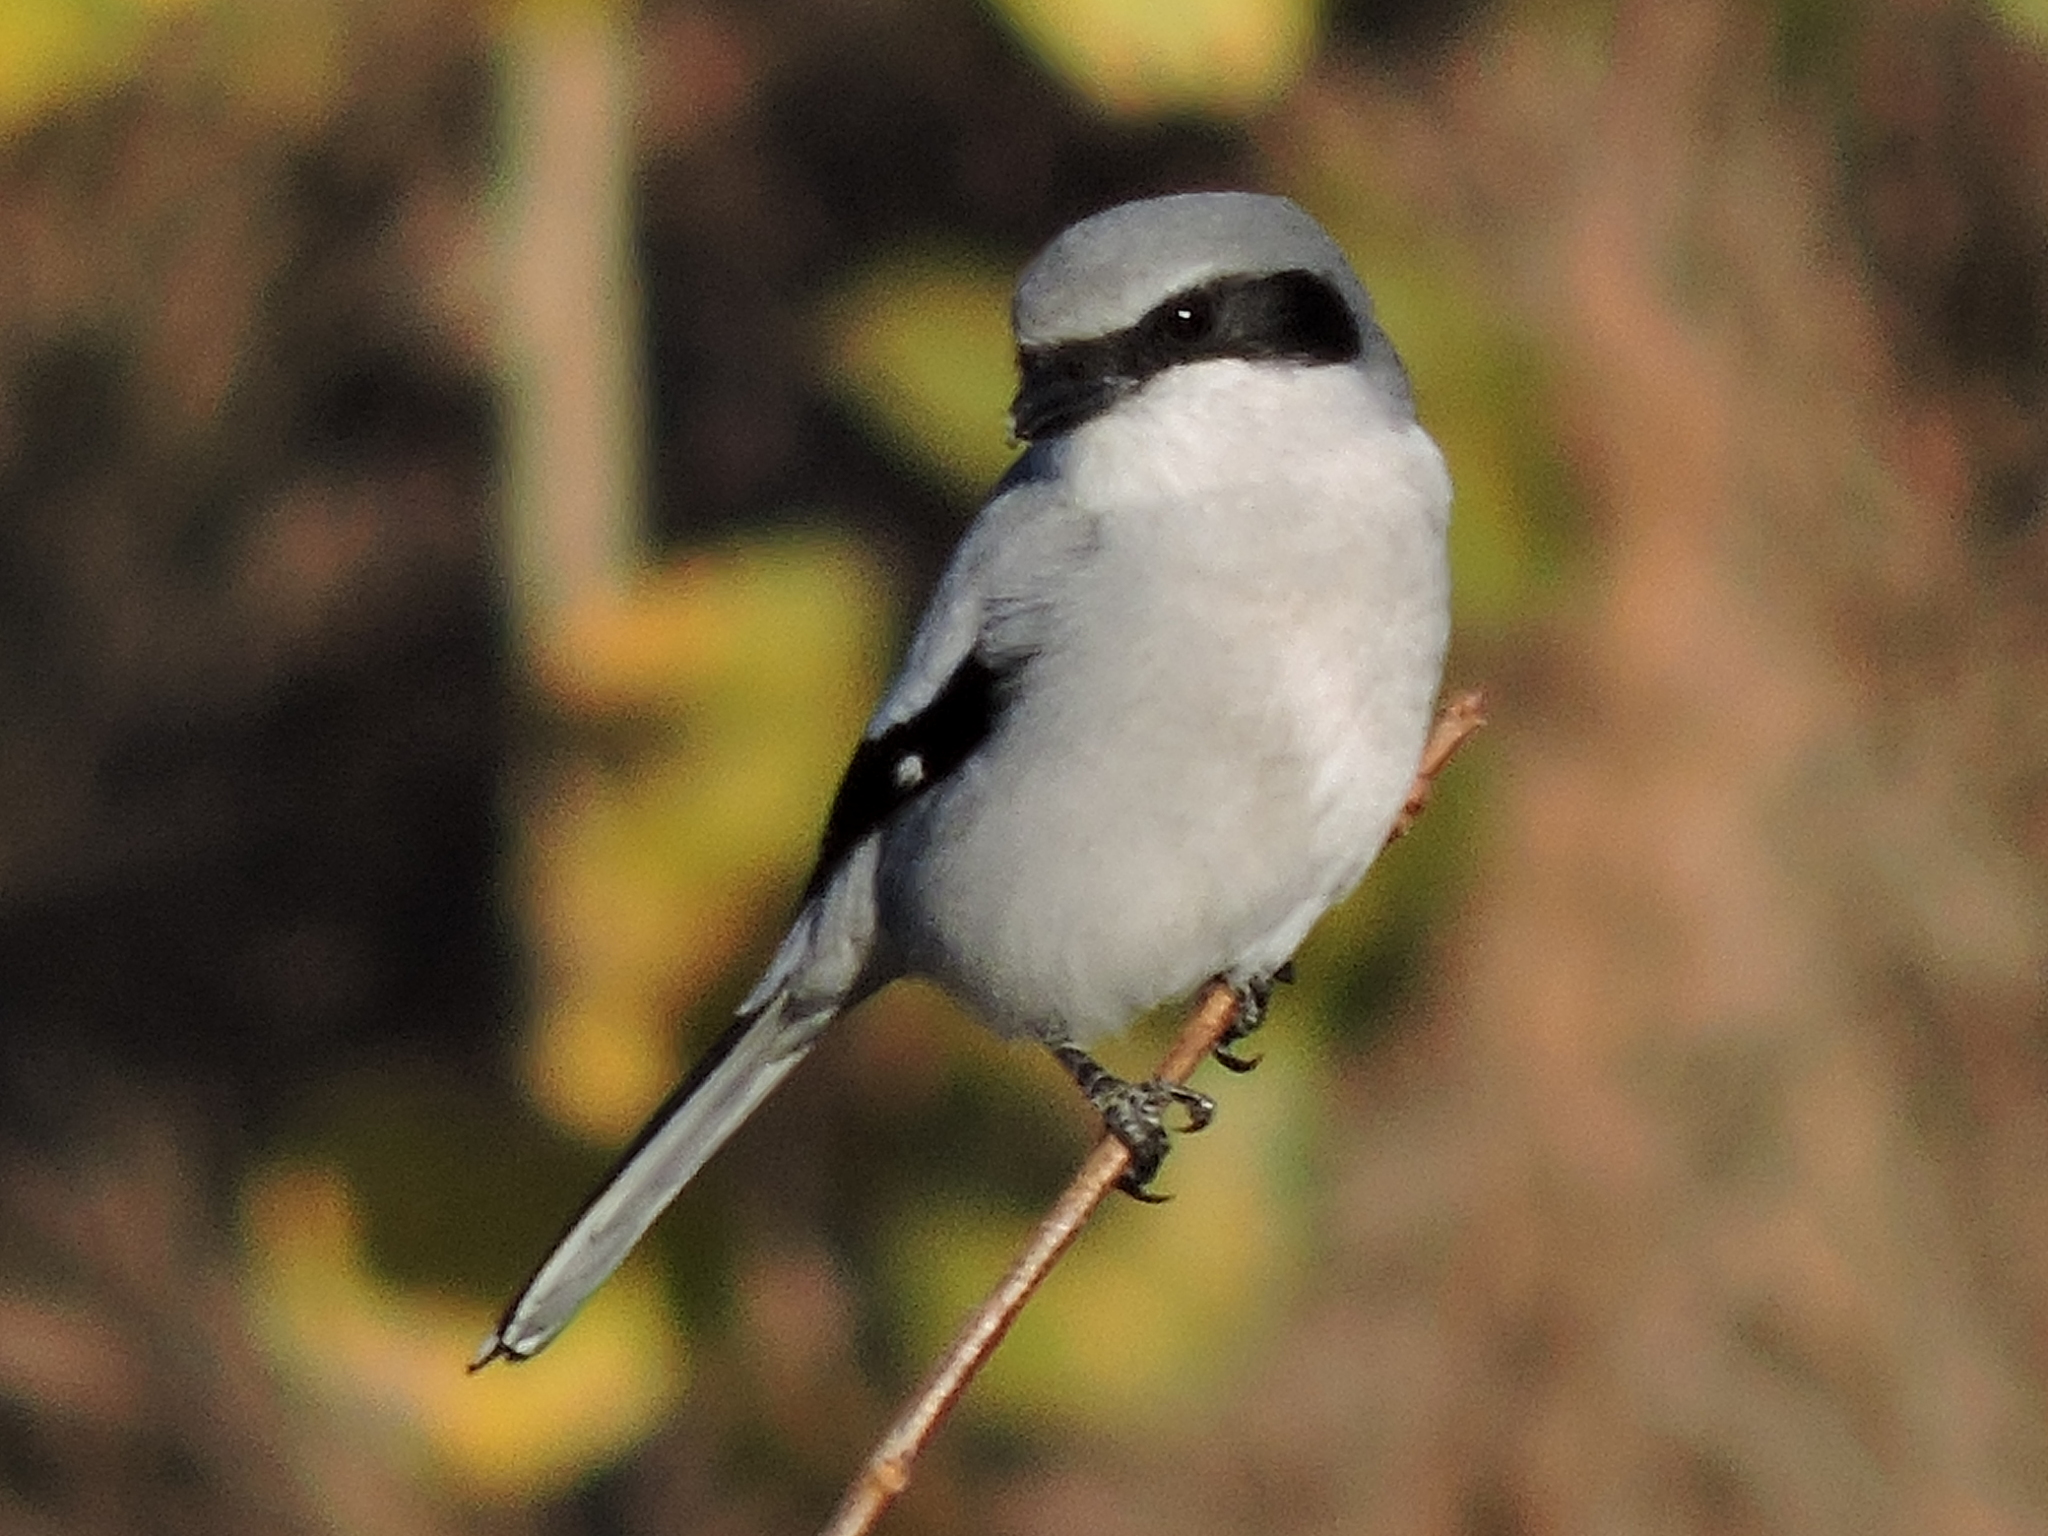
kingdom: Animalia
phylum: Chordata
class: Aves
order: Passeriformes
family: Laniidae
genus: Lanius
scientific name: Lanius ludovicianus
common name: Loggerhead shrike
